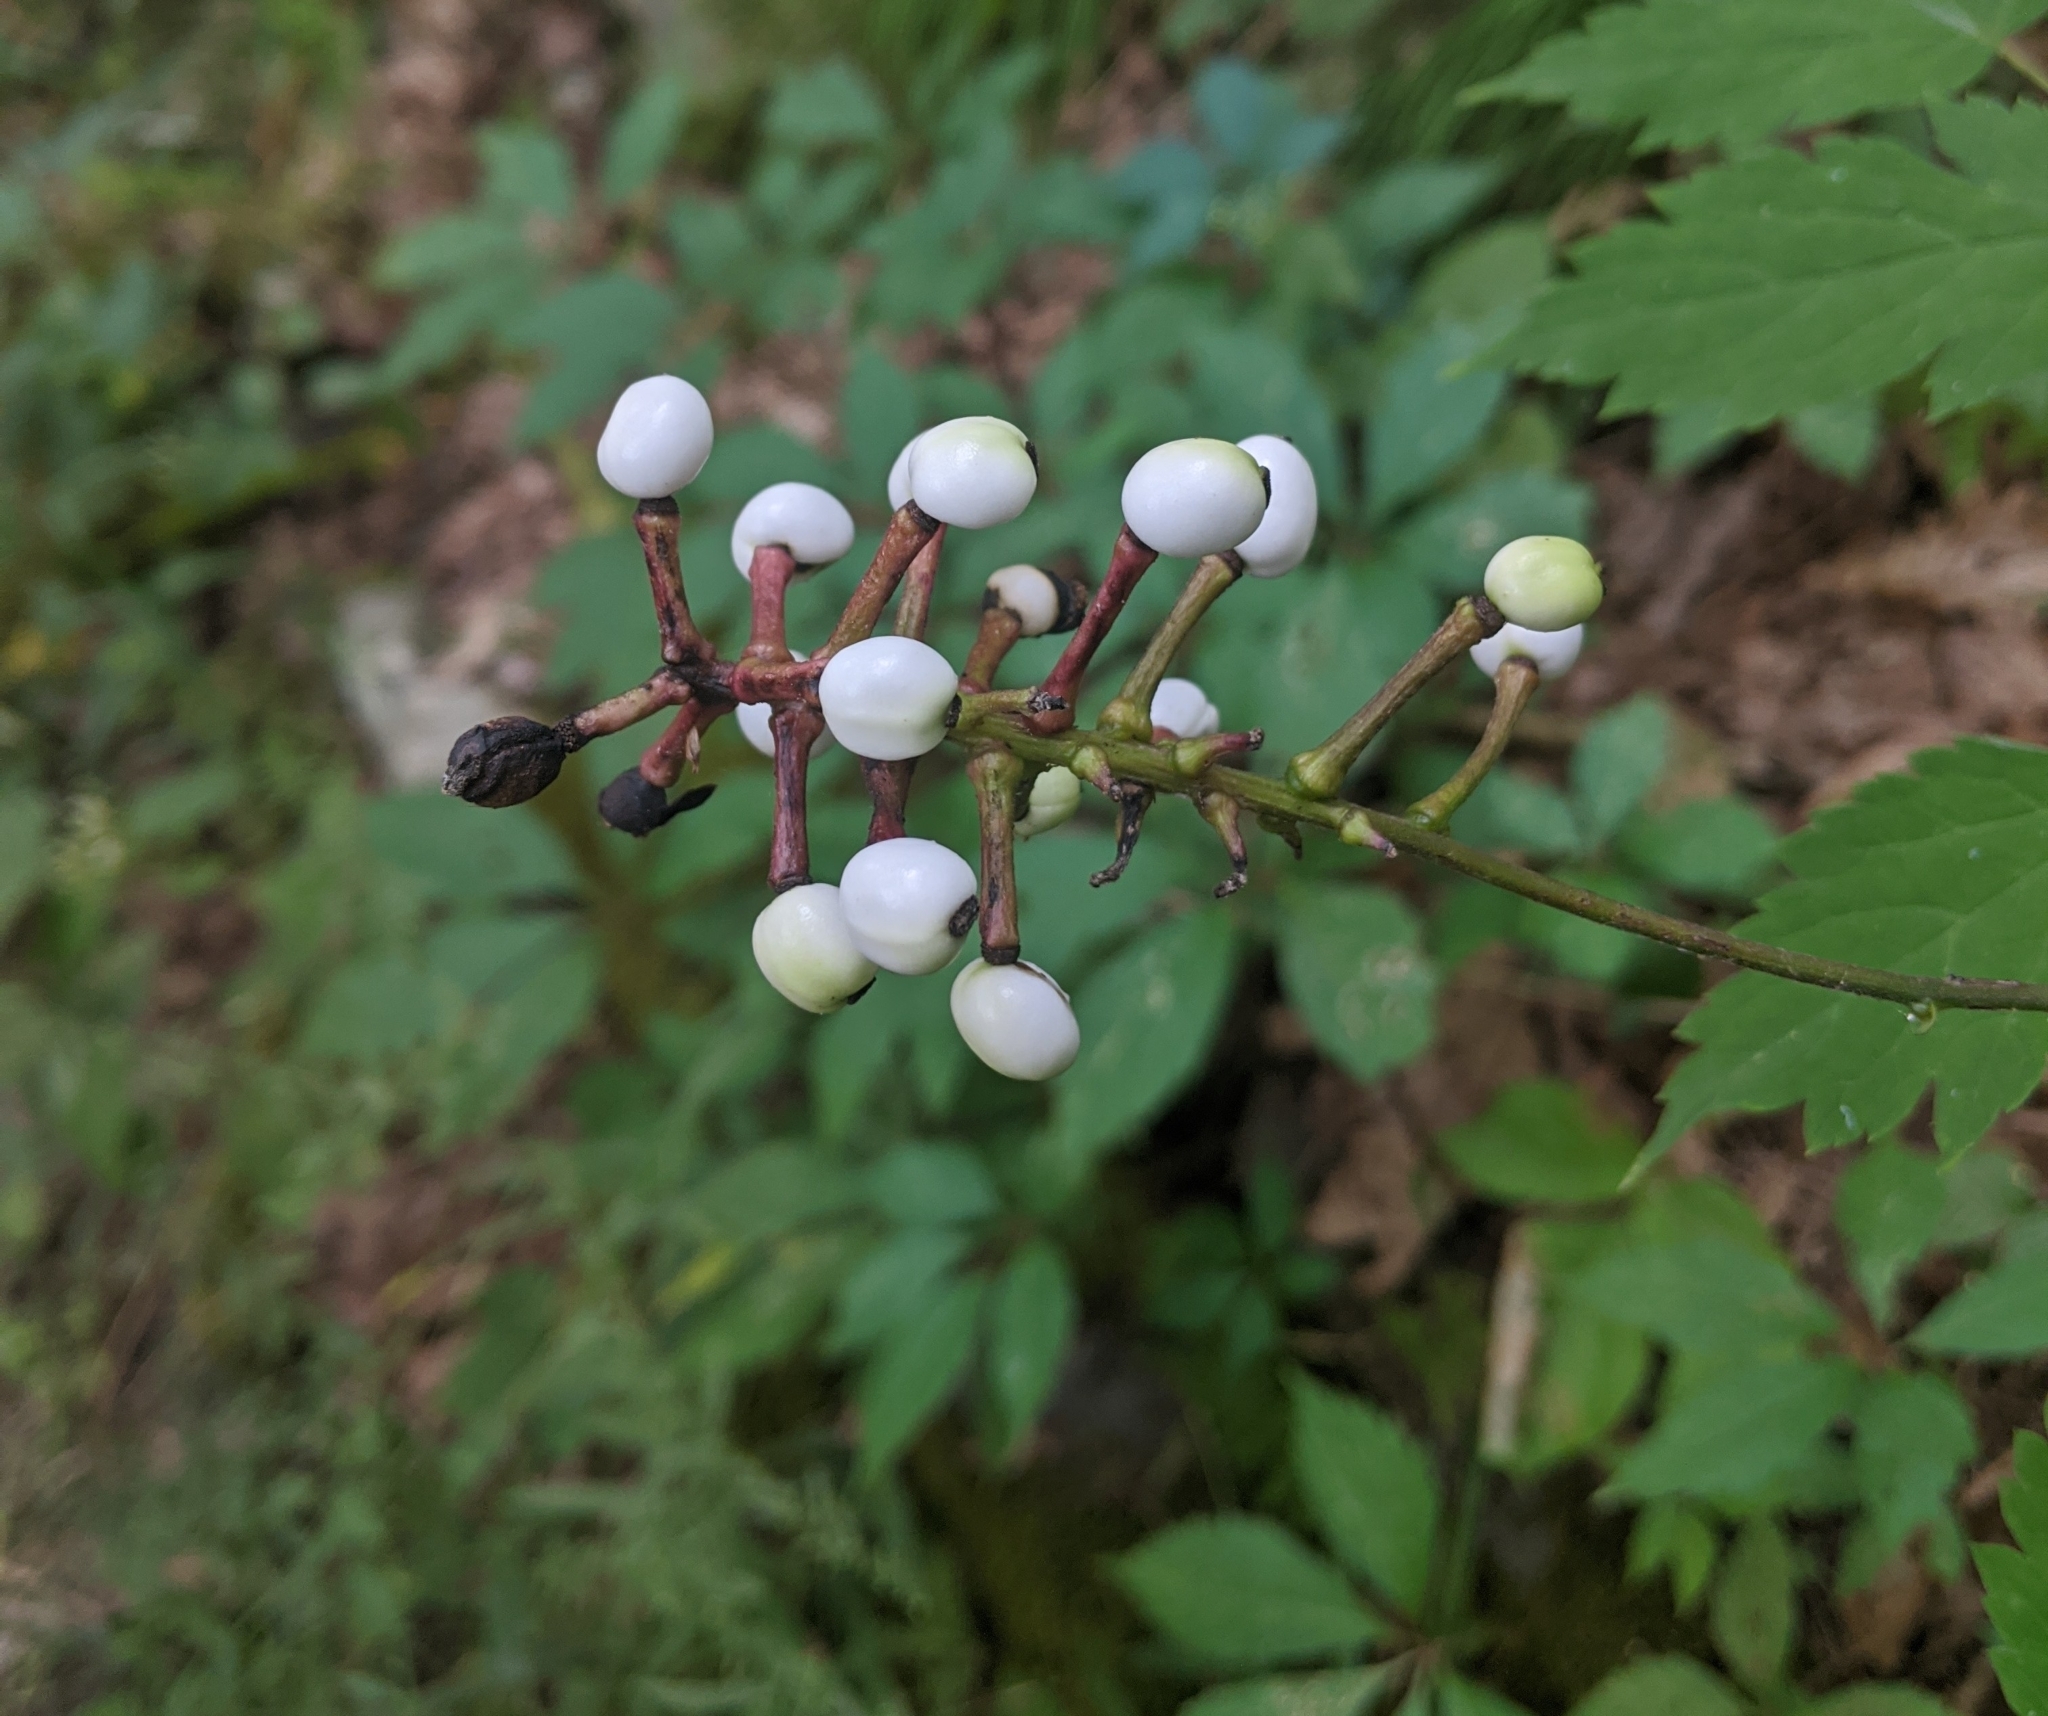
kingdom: Plantae
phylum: Tracheophyta
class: Magnoliopsida
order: Ranunculales
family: Ranunculaceae
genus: Actaea
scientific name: Actaea pachypoda
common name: Doll's-eyes
